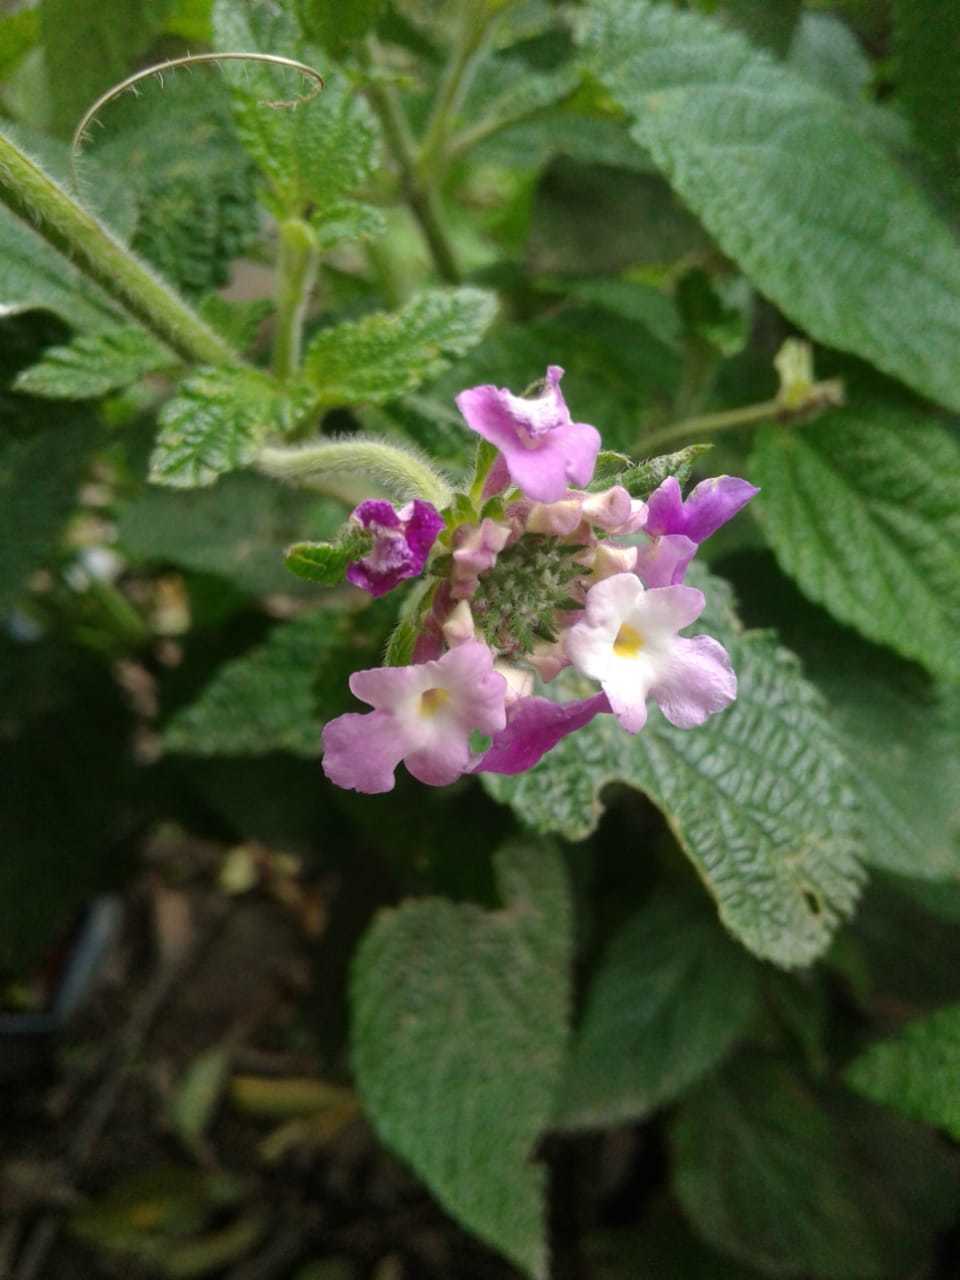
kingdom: Plantae
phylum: Tracheophyta
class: Magnoliopsida
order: Lamiales
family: Verbenaceae
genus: Lantana
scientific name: Lantana rugulosa
